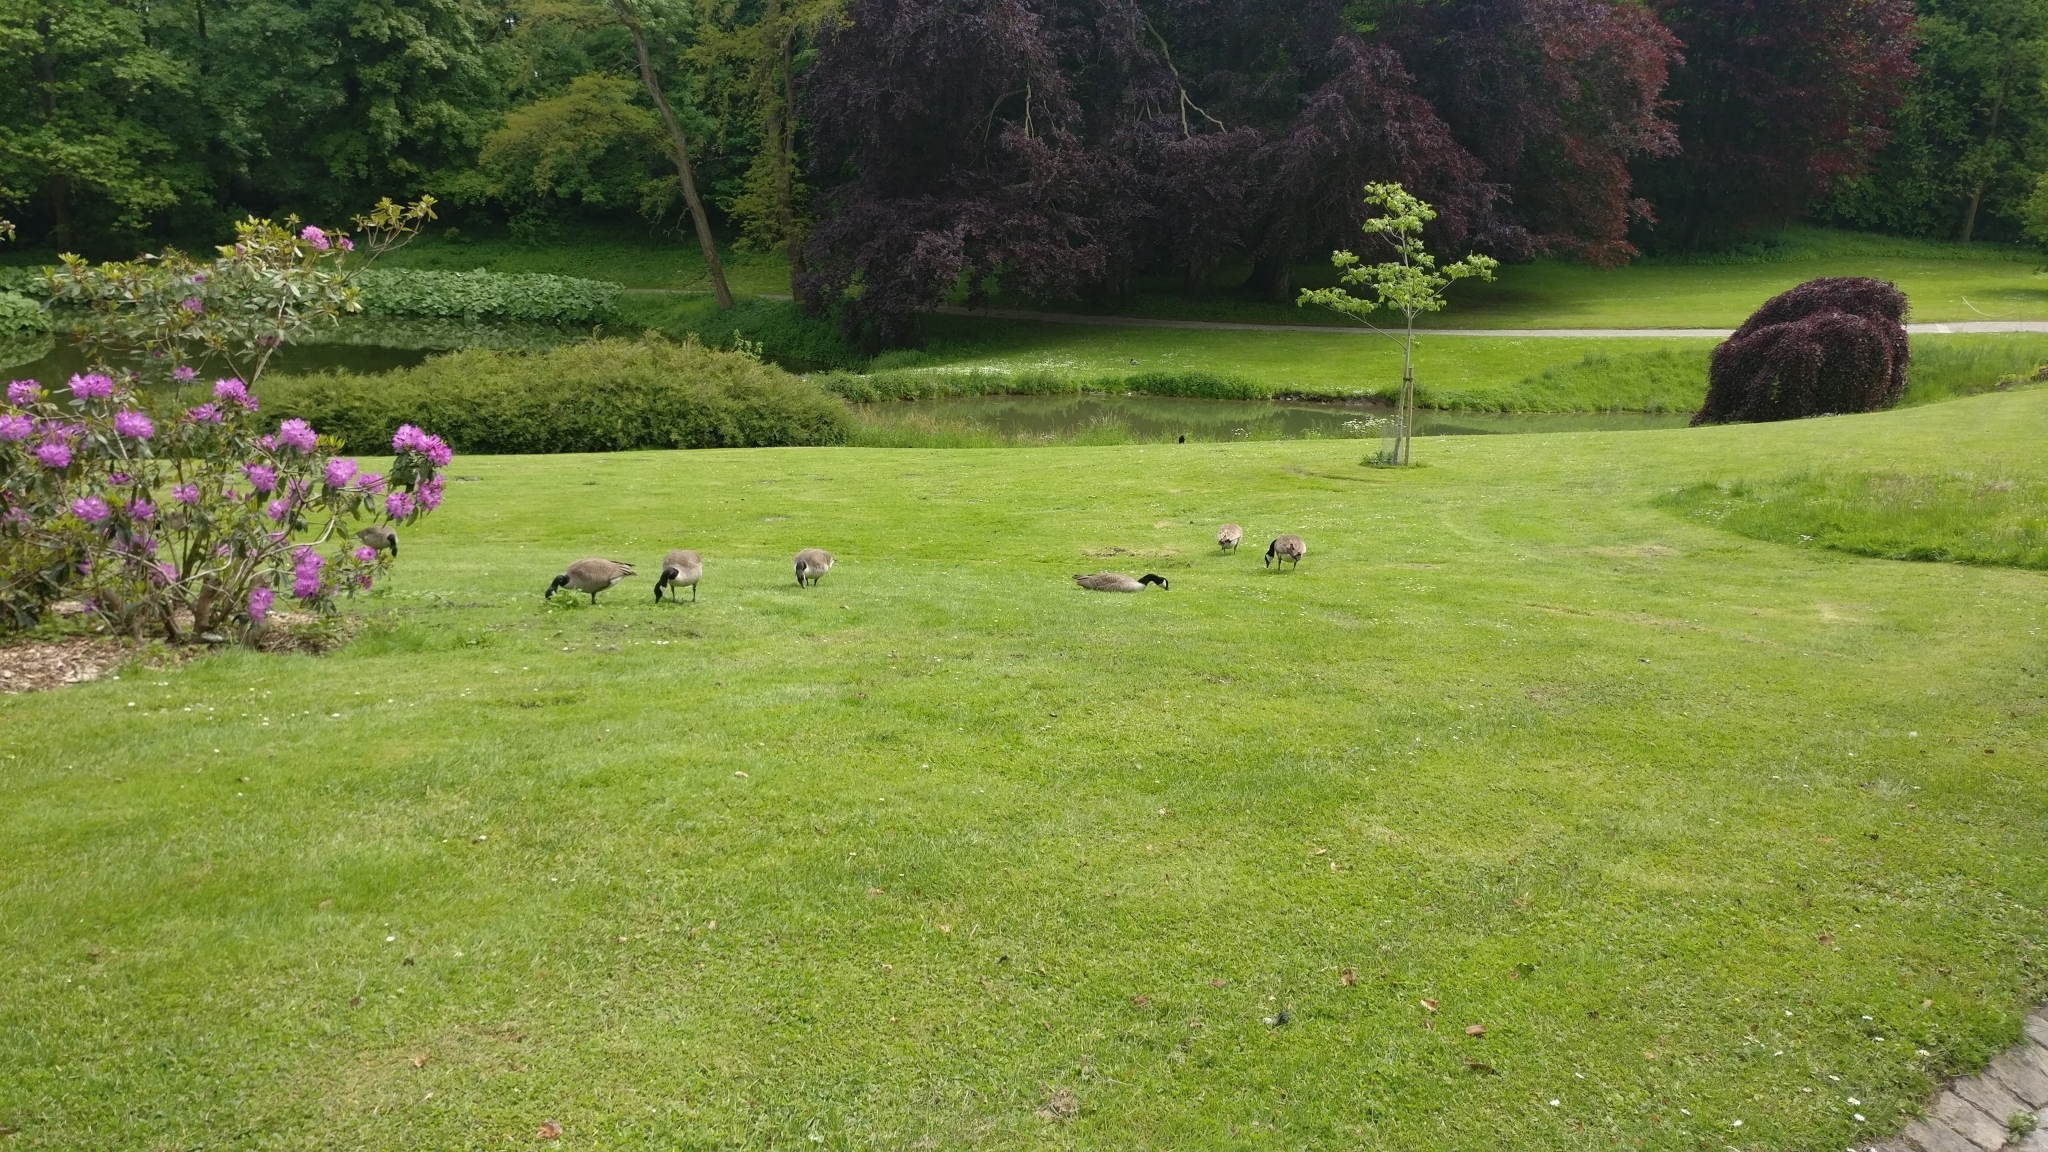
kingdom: Animalia
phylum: Chordata
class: Aves
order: Anseriformes
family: Anatidae
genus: Branta
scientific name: Branta canadensis
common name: Canada goose
